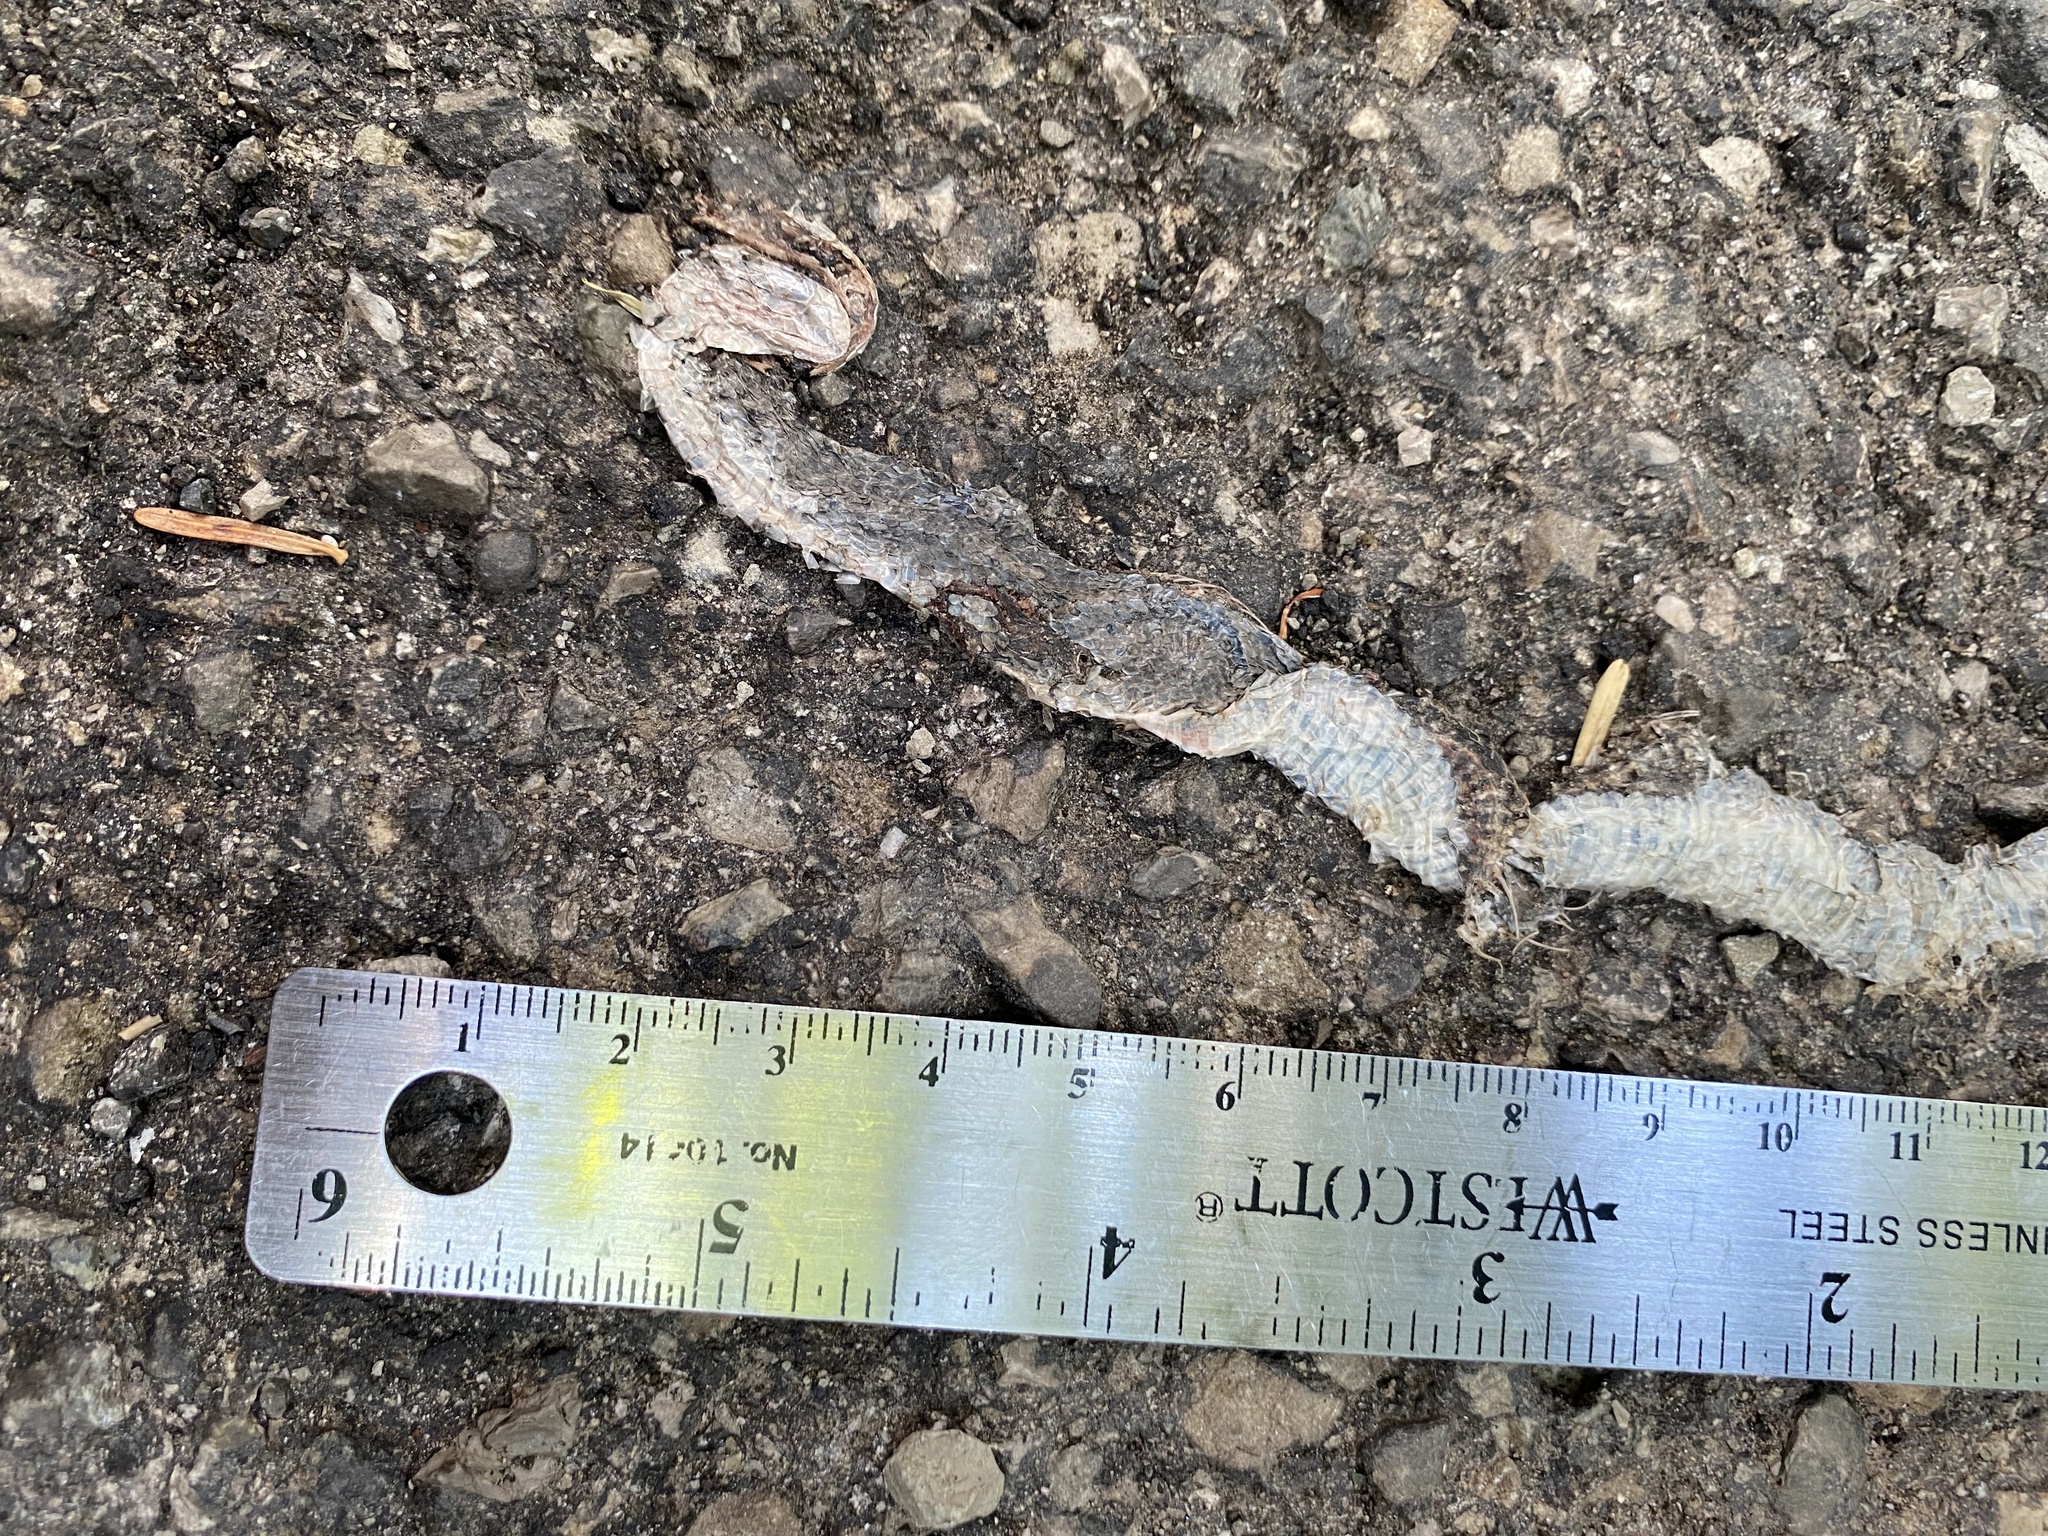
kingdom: Animalia
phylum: Chordata
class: Squamata
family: Colubridae
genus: Hierophis
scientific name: Hierophis viridiflavus
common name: Green whip snake
